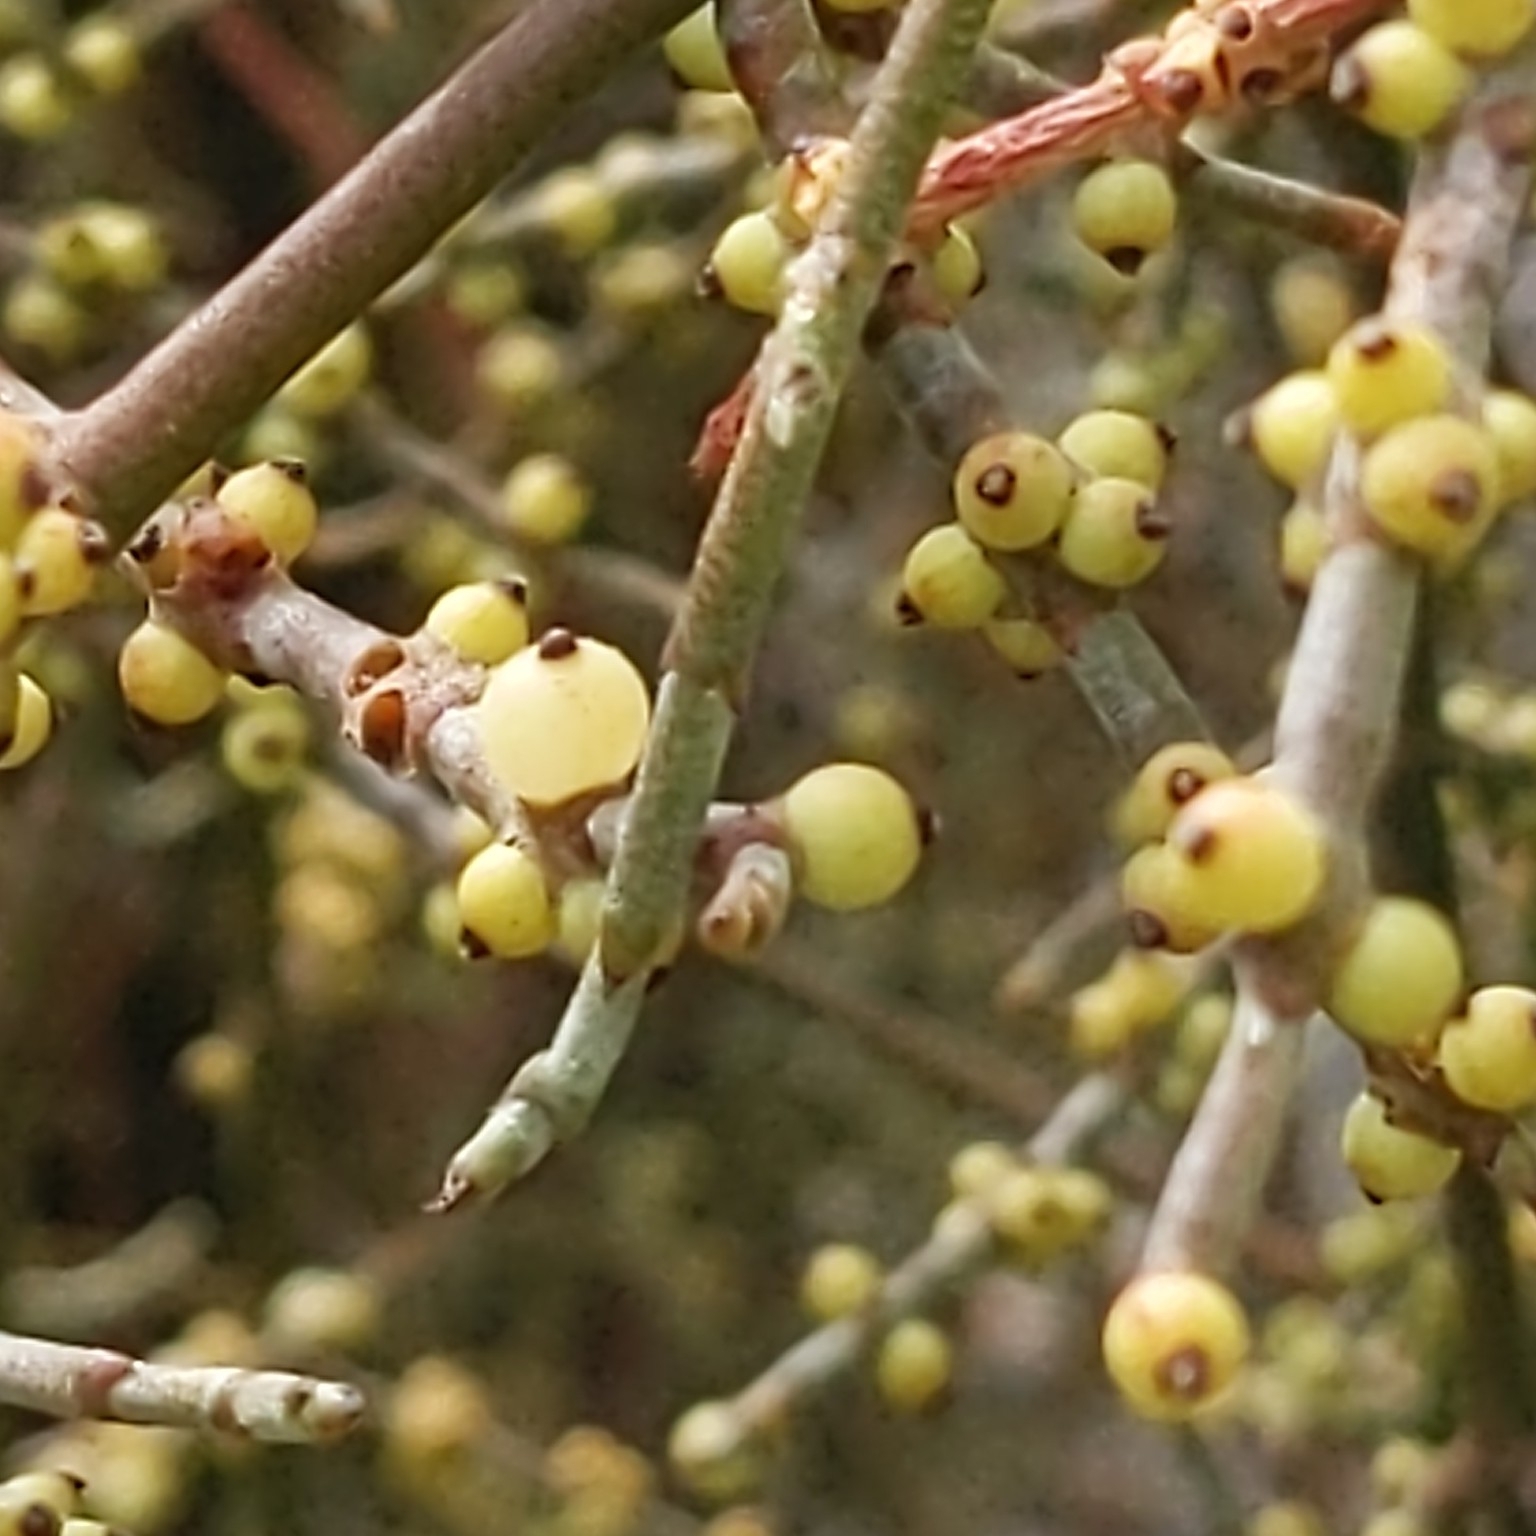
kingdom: Plantae
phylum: Tracheophyta
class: Magnoliopsida
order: Santalales
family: Viscaceae
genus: Phoradendron
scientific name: Phoradendron californicum
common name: Acacia mistletoe
